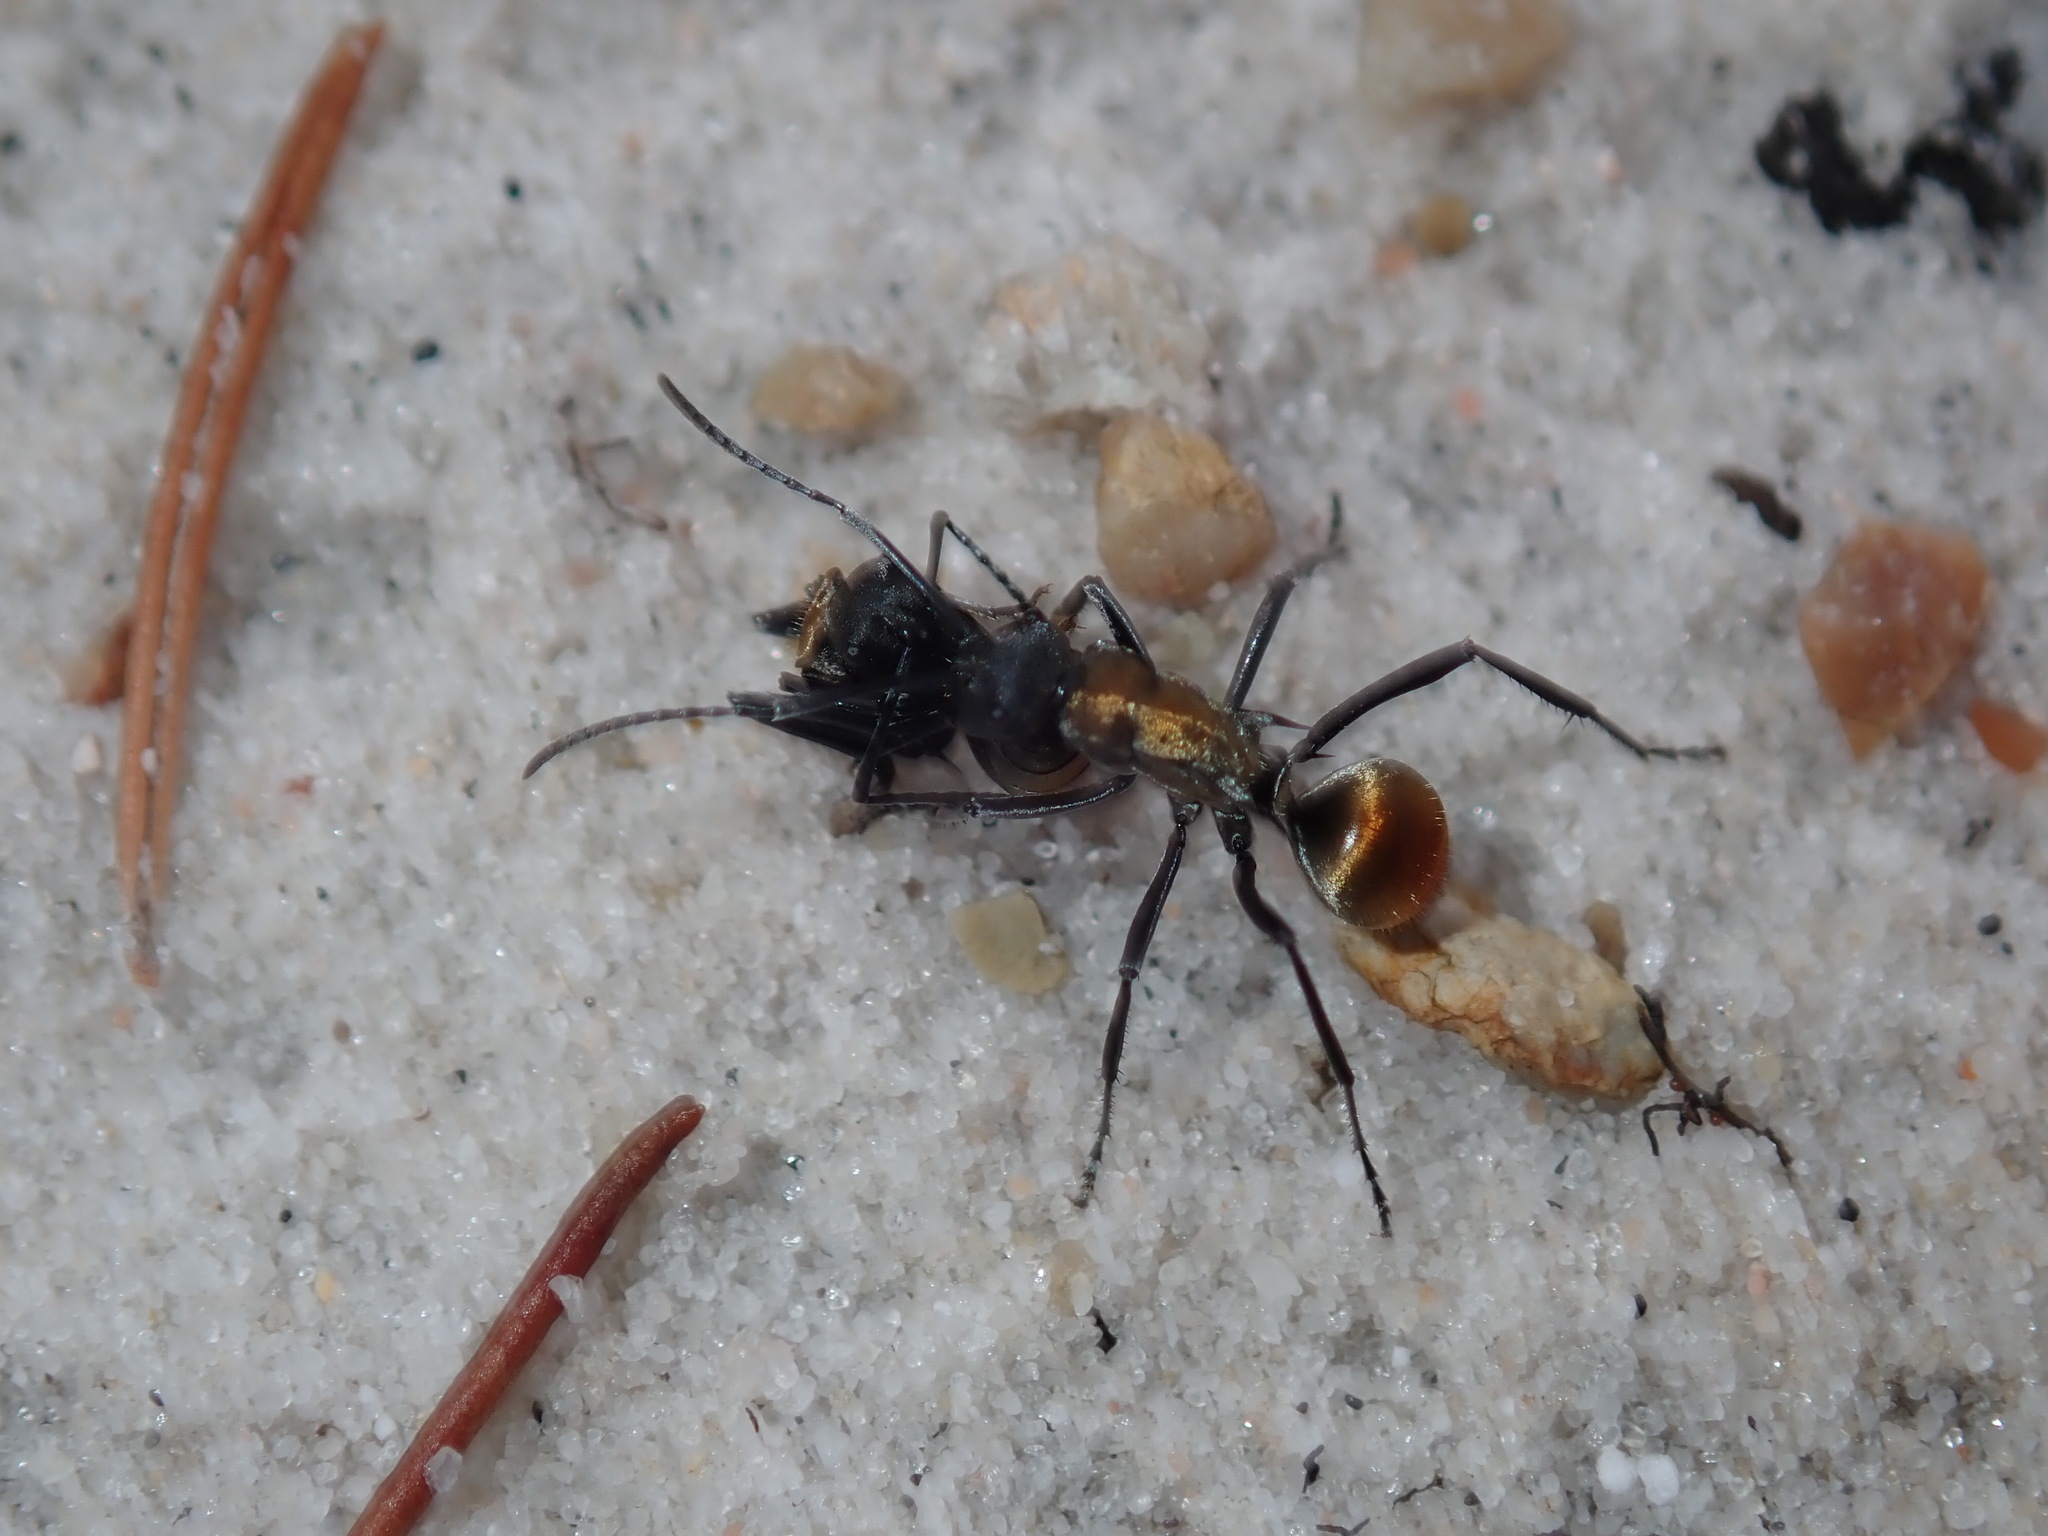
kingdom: Animalia
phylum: Arthropoda
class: Insecta
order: Hymenoptera
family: Formicidae
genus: Polyrhachis
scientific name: Polyrhachis ammon
